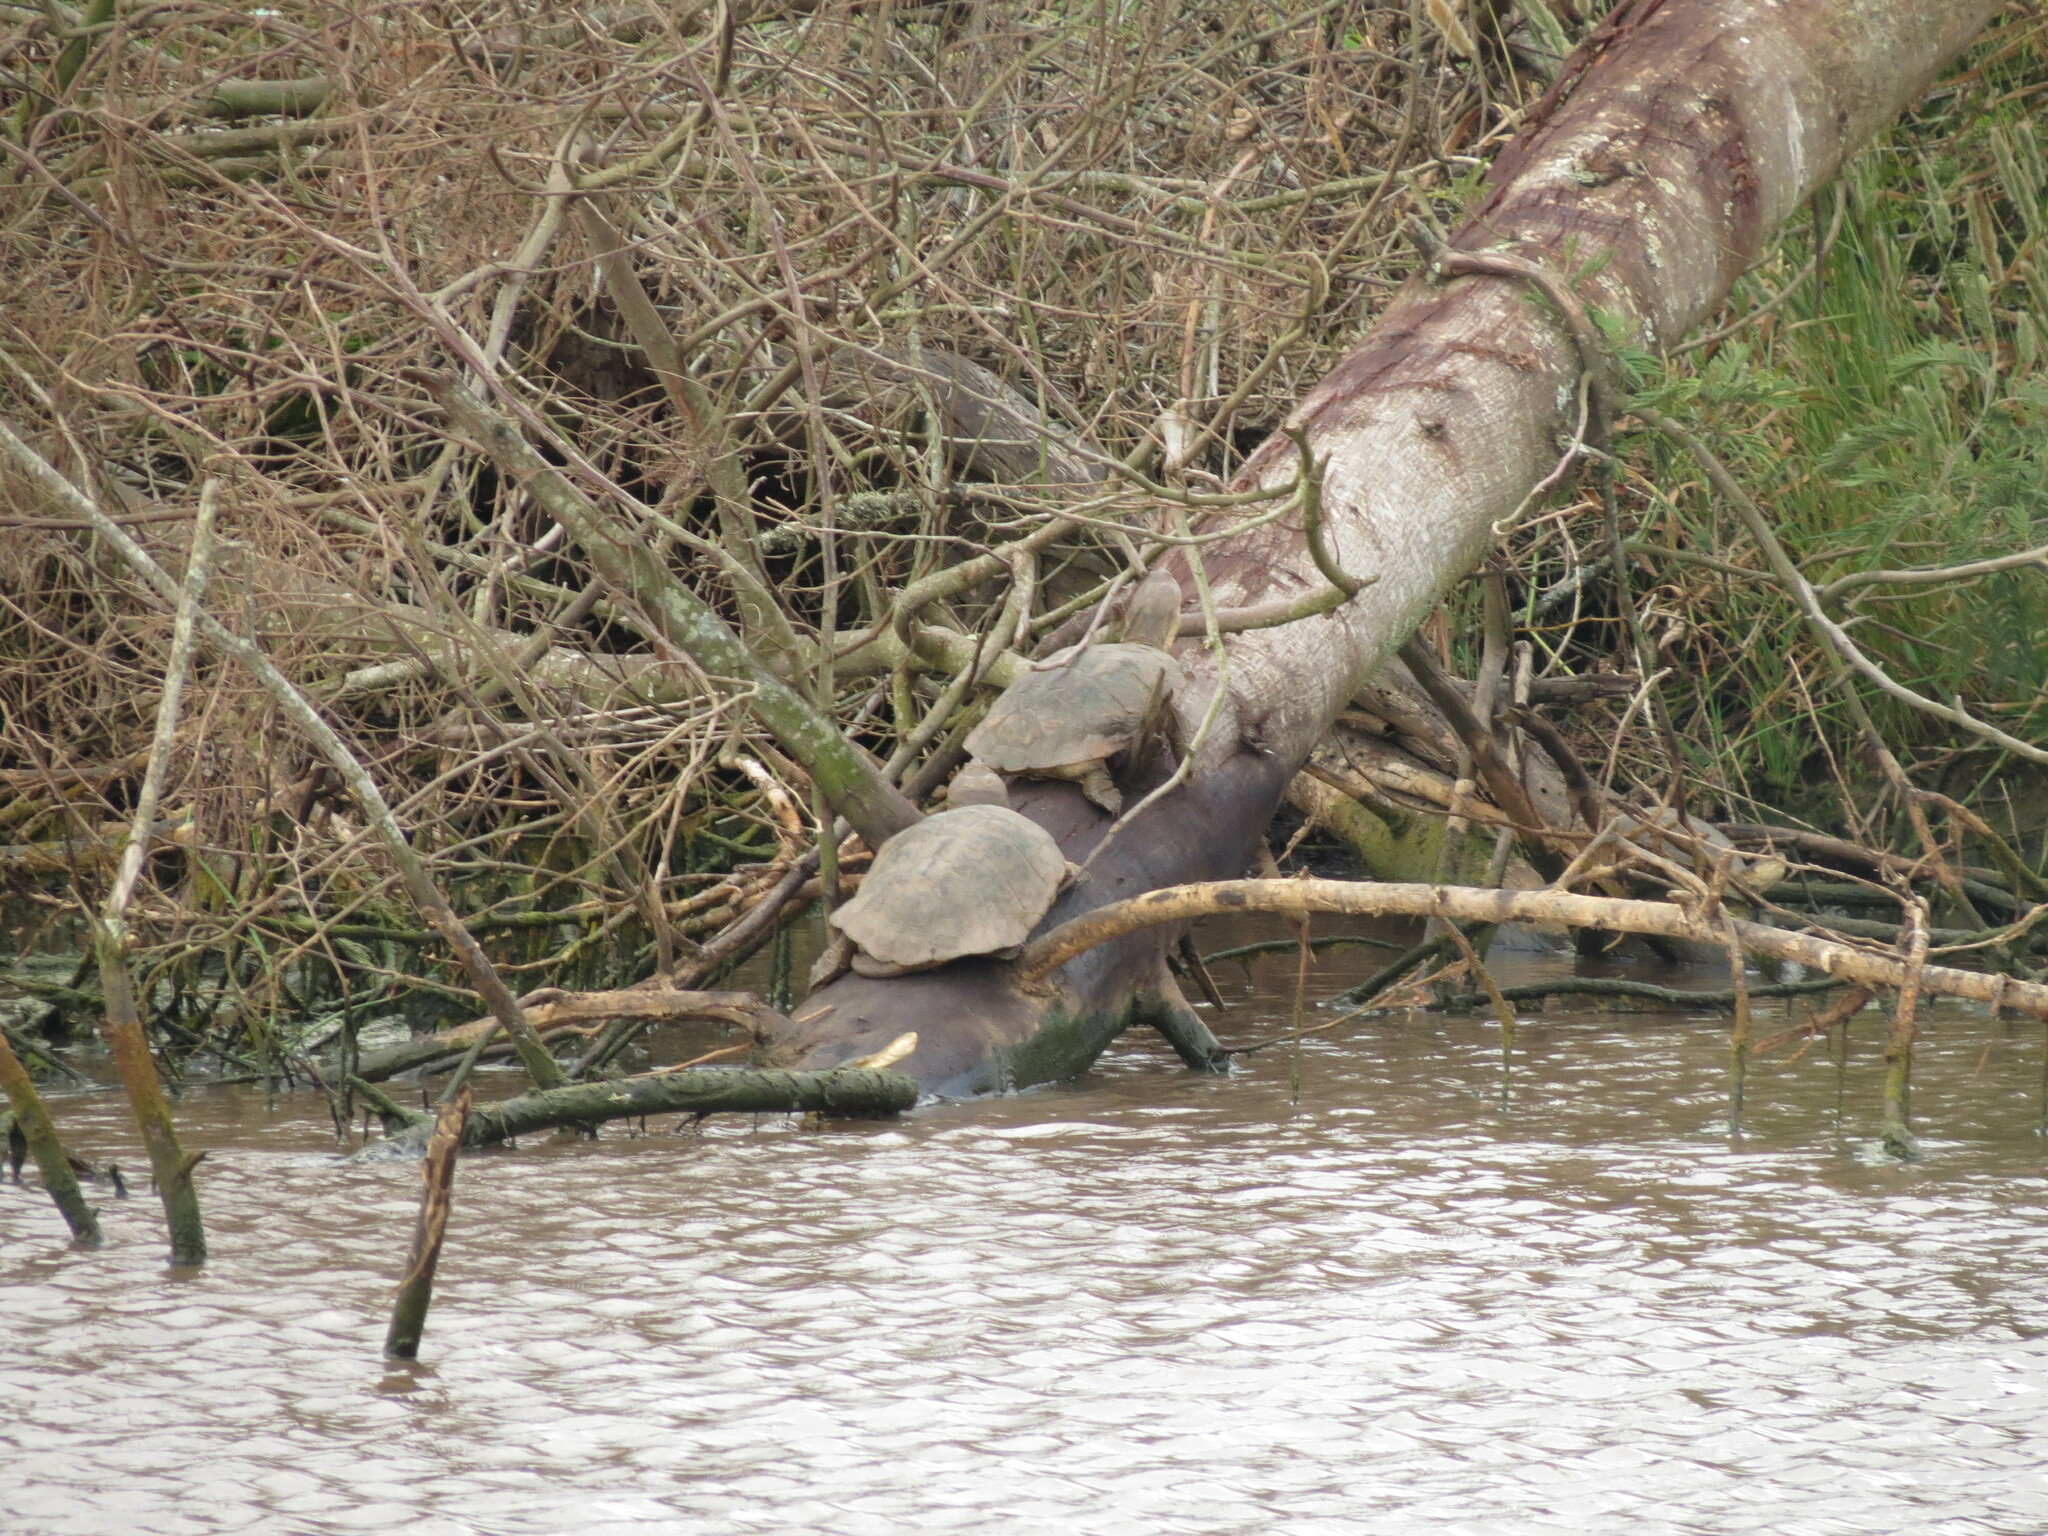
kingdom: Animalia
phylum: Chordata
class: Testudines
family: Pelomedusidae
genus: Pelomedusa
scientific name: Pelomedusa galeata
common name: South african helmeted terrapin
